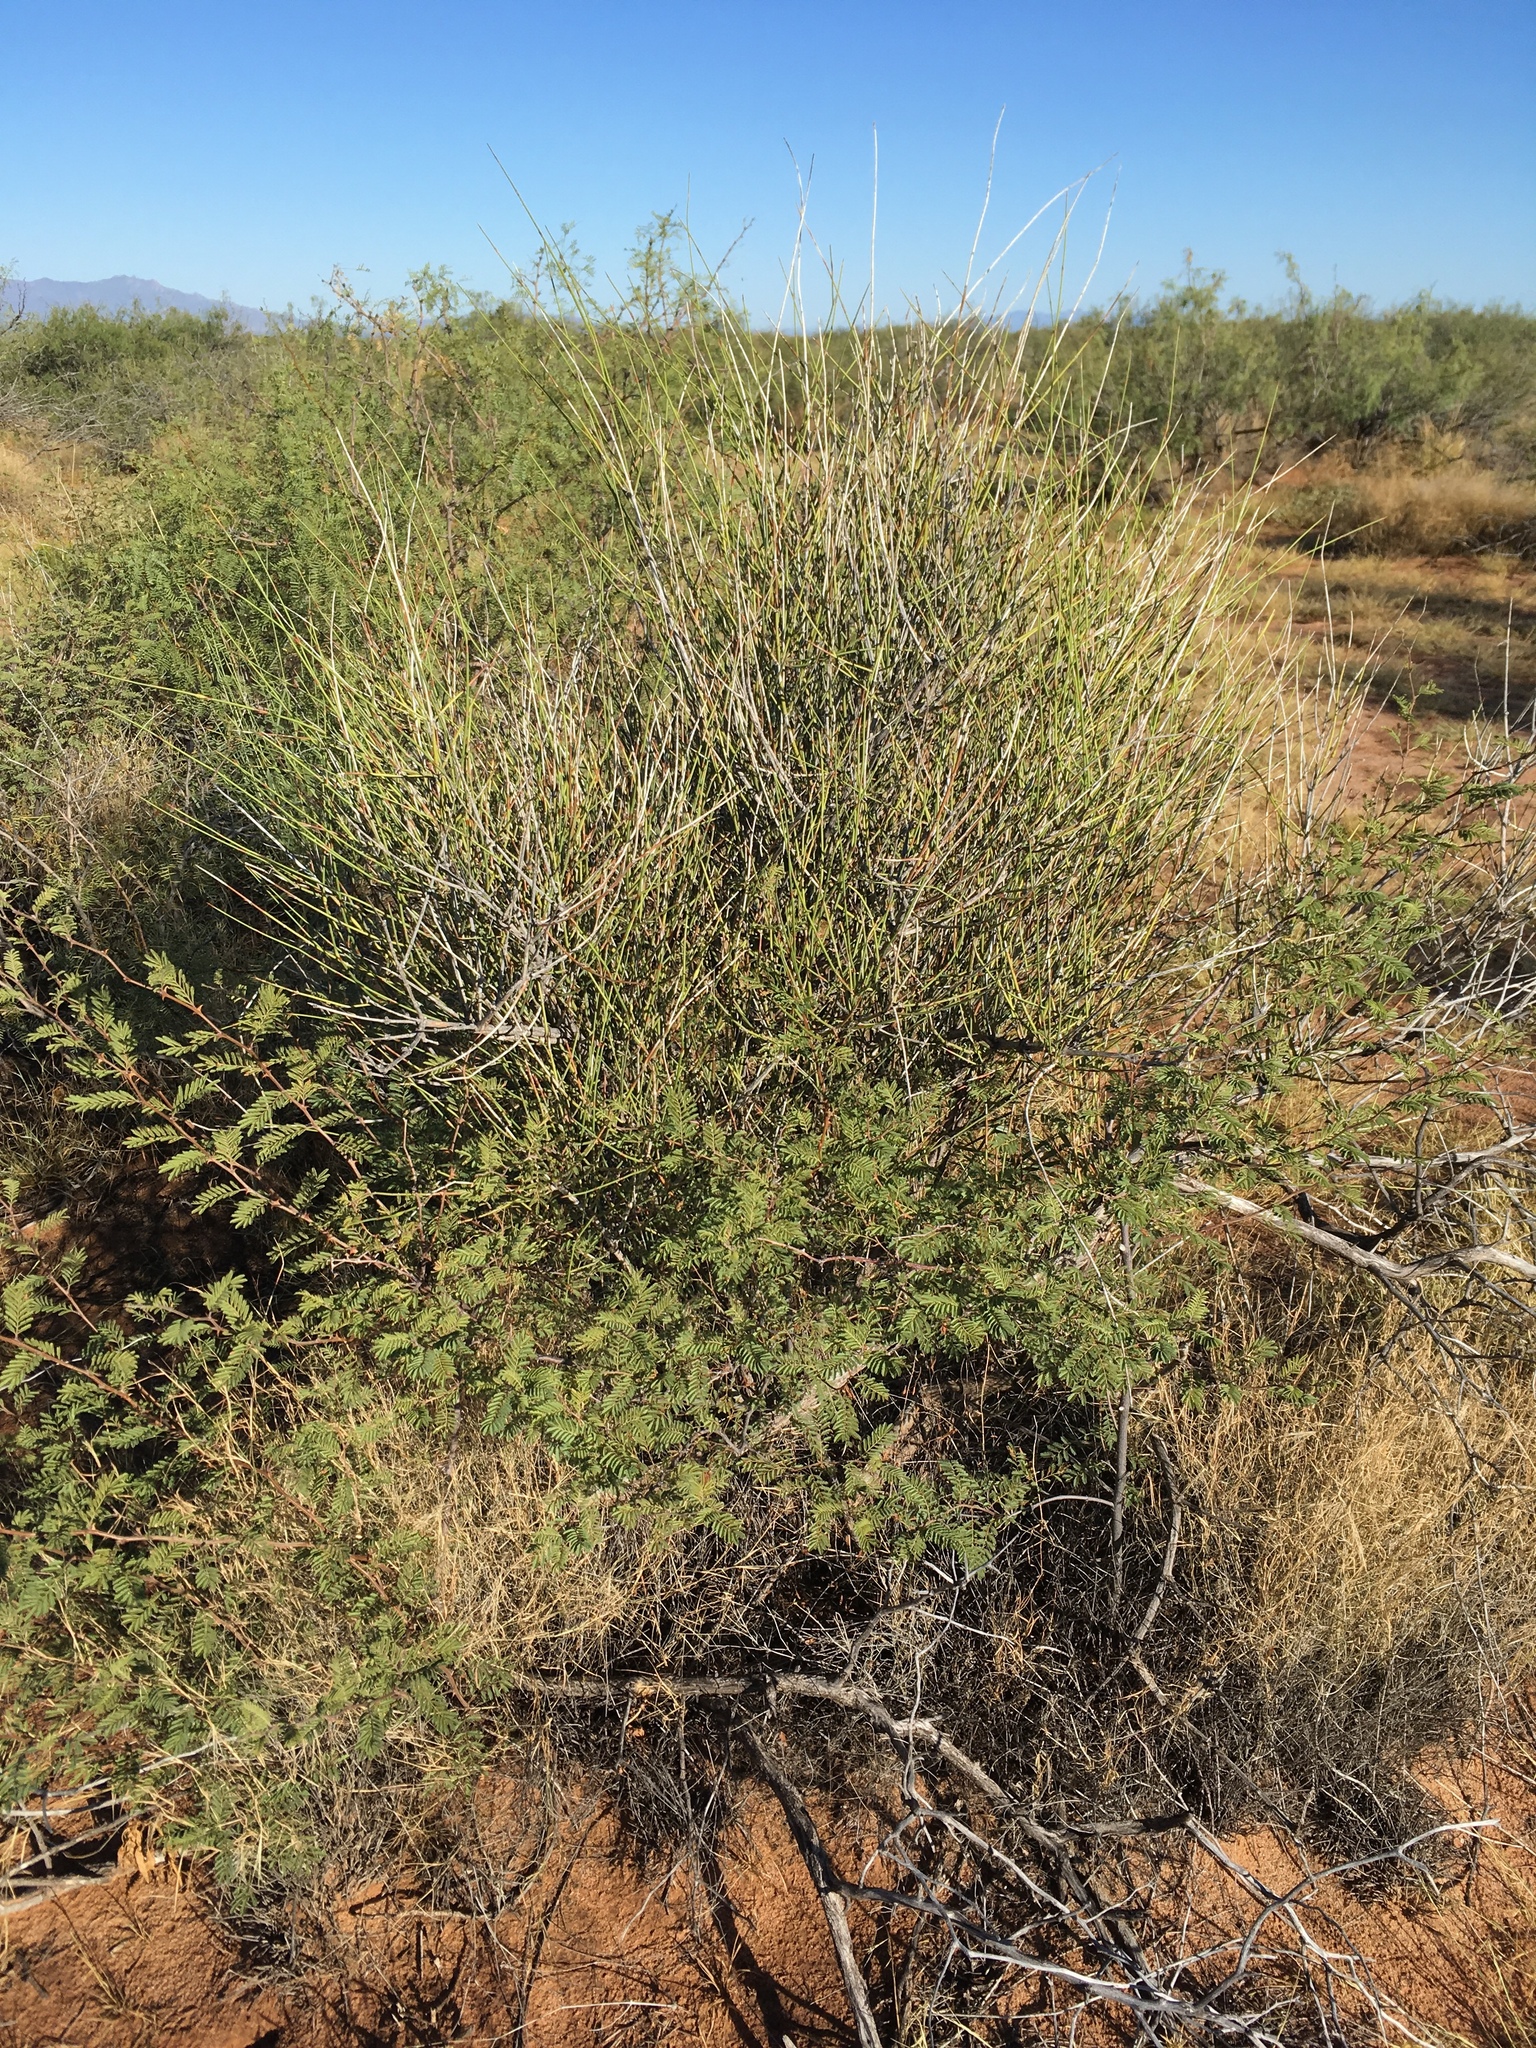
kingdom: Plantae
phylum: Tracheophyta
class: Gnetopsida
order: Ephedrales
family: Ephedraceae
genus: Ephedra
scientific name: Ephedra trifurca
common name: Mexican-tea
